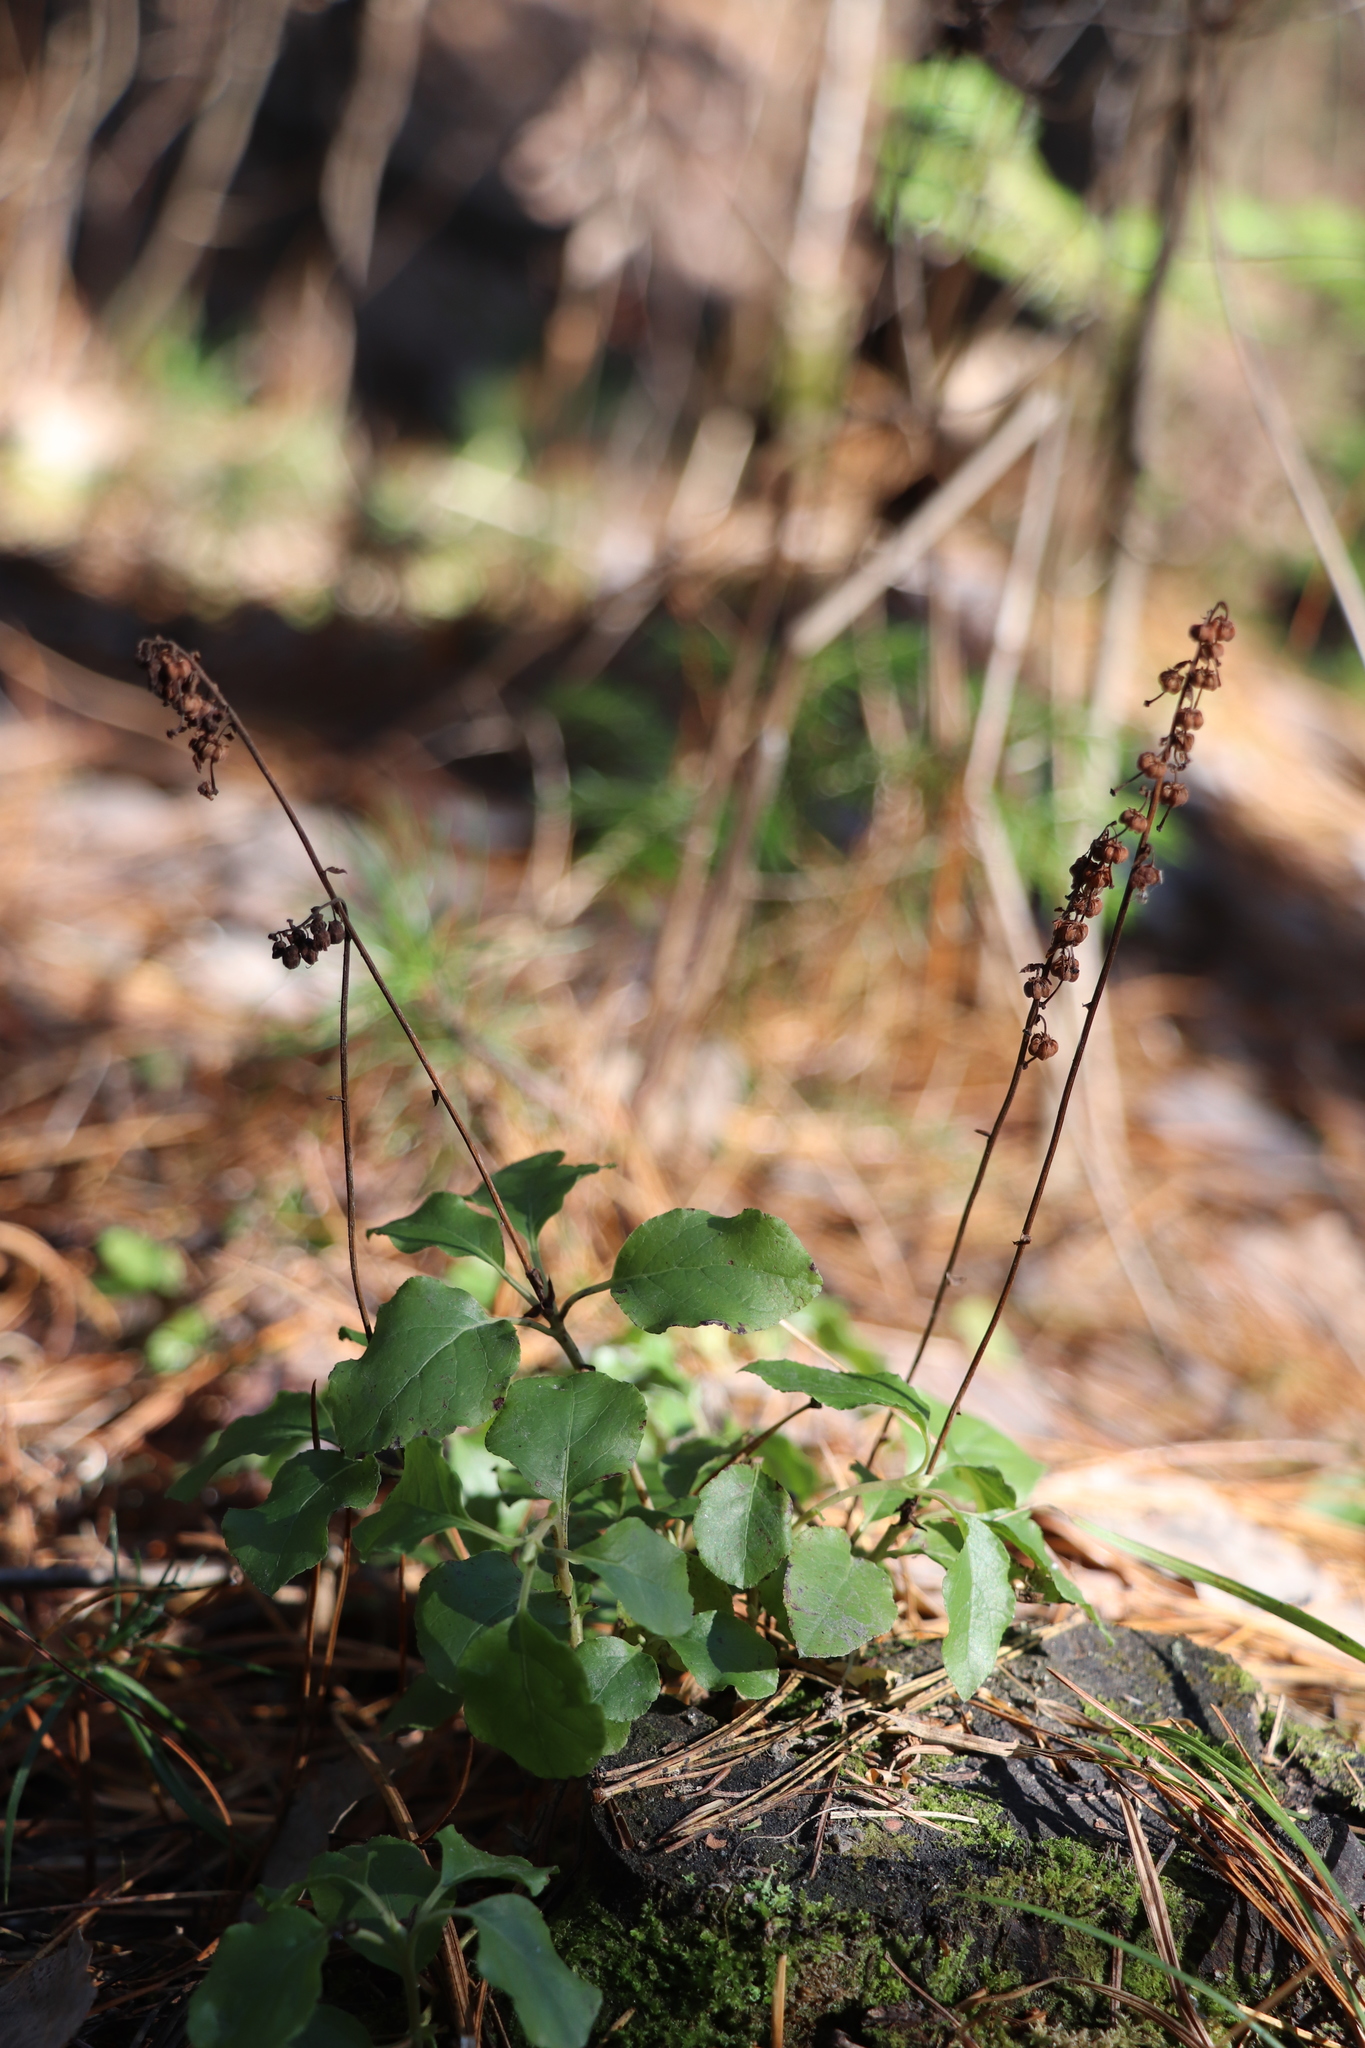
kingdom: Plantae
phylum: Tracheophyta
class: Magnoliopsida
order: Ericales
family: Ericaceae
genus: Orthilia
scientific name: Orthilia secunda
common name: One-sided orthilia
